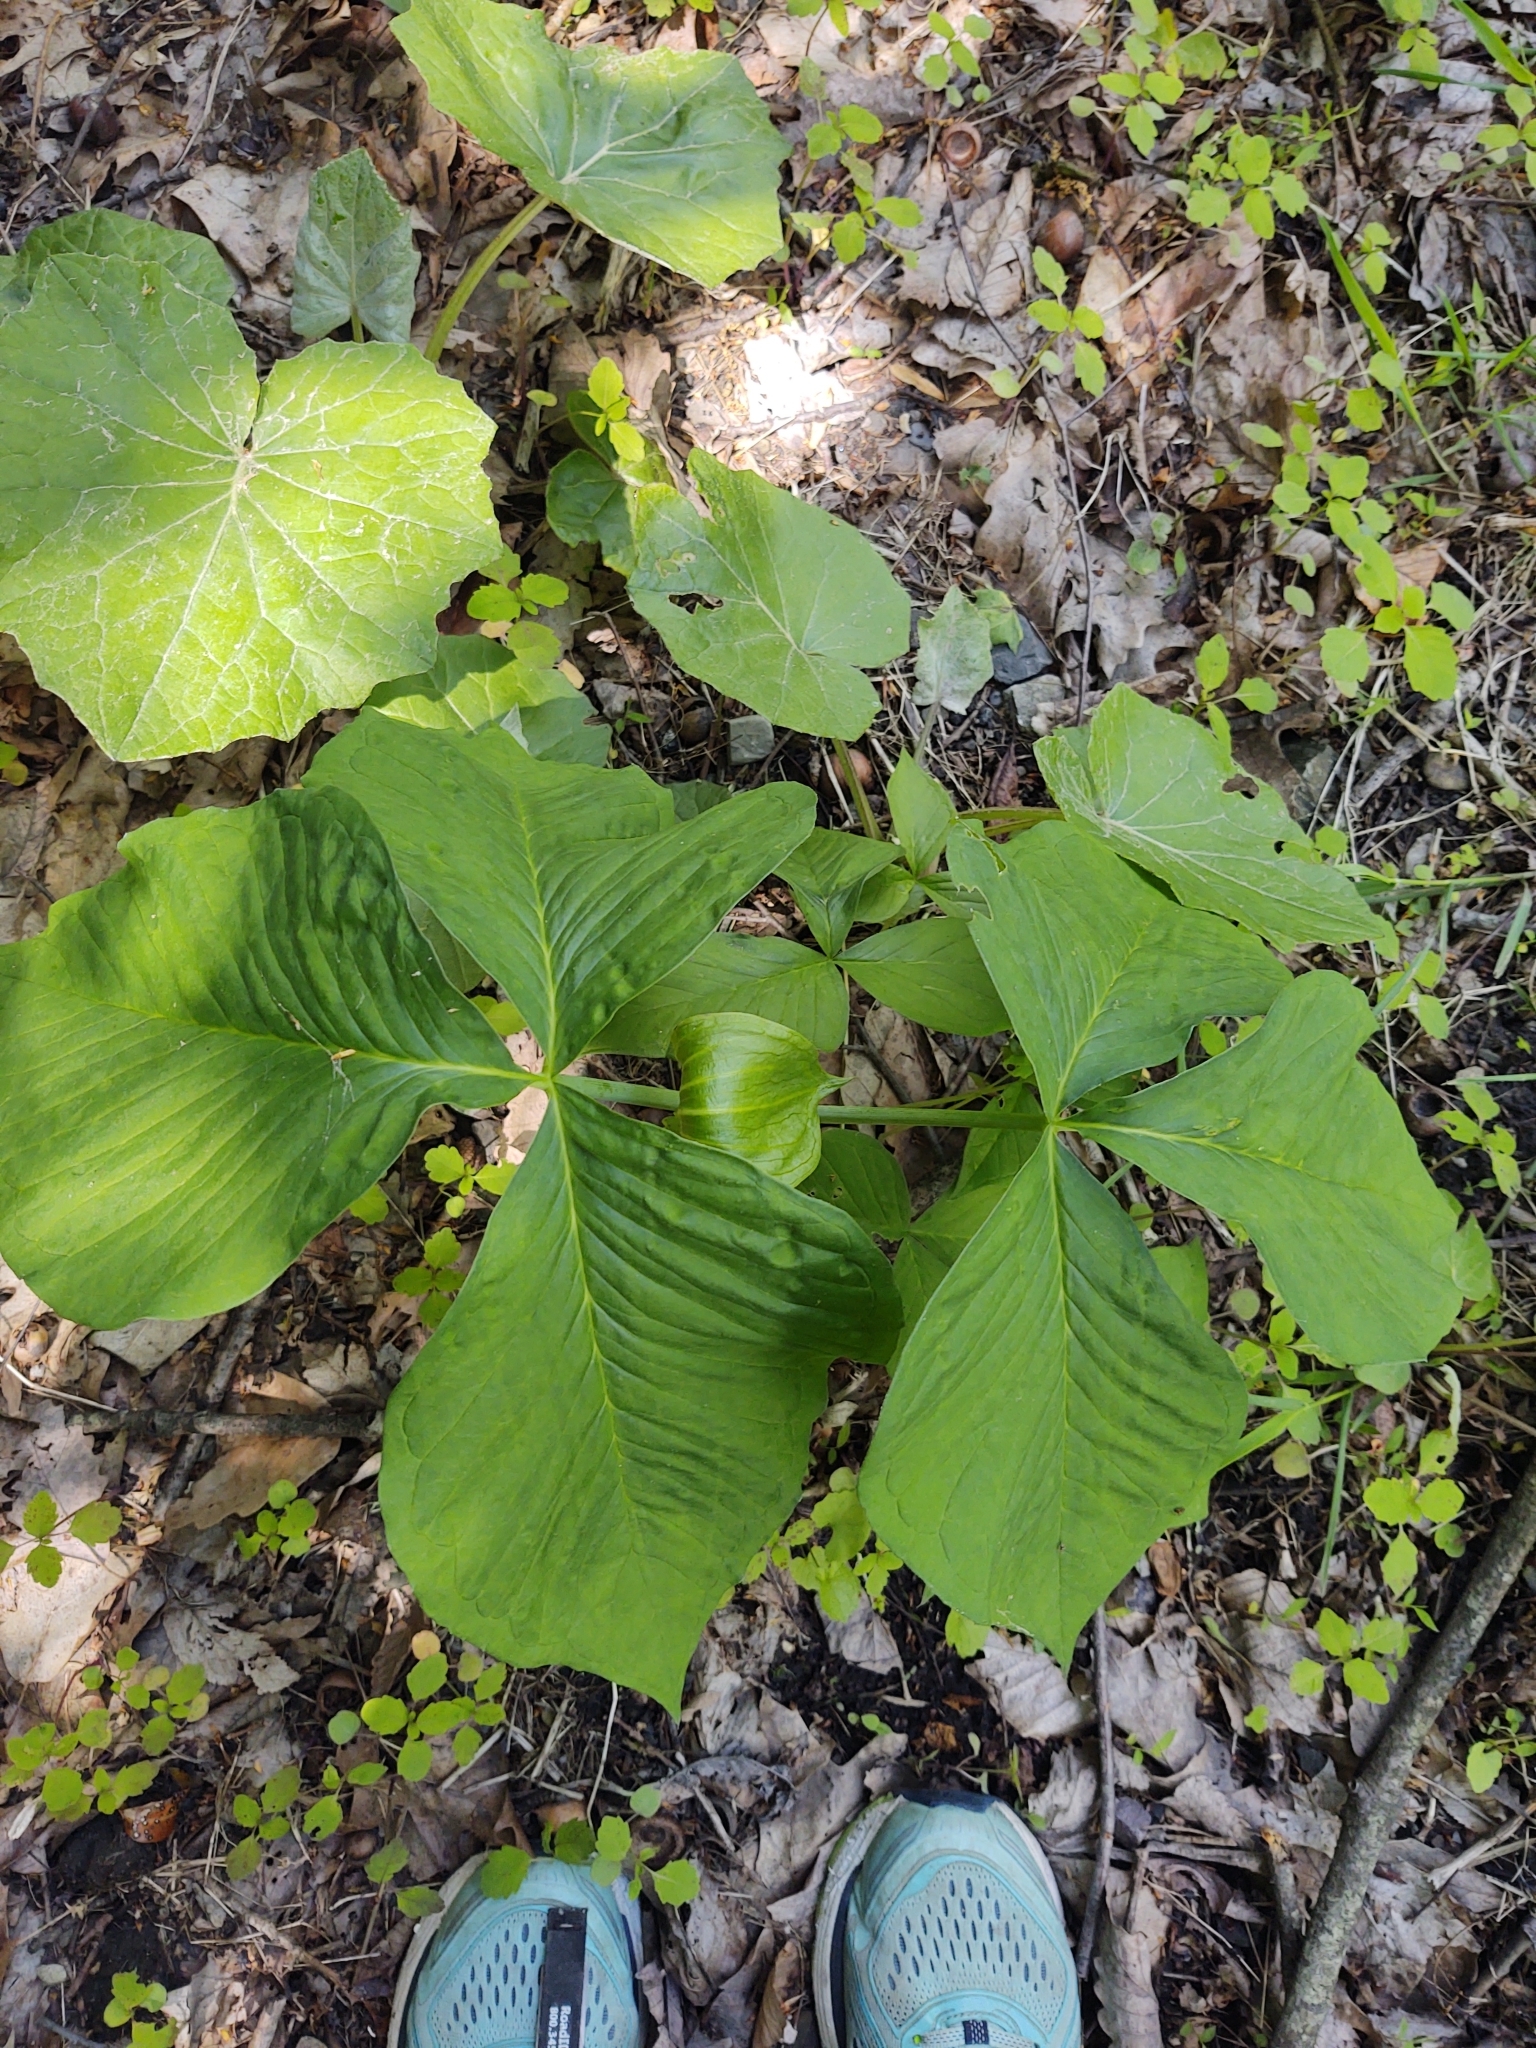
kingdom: Plantae
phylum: Tracheophyta
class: Liliopsida
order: Alismatales
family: Araceae
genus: Arisaema
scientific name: Arisaema triphyllum
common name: Jack-in-the-pulpit
